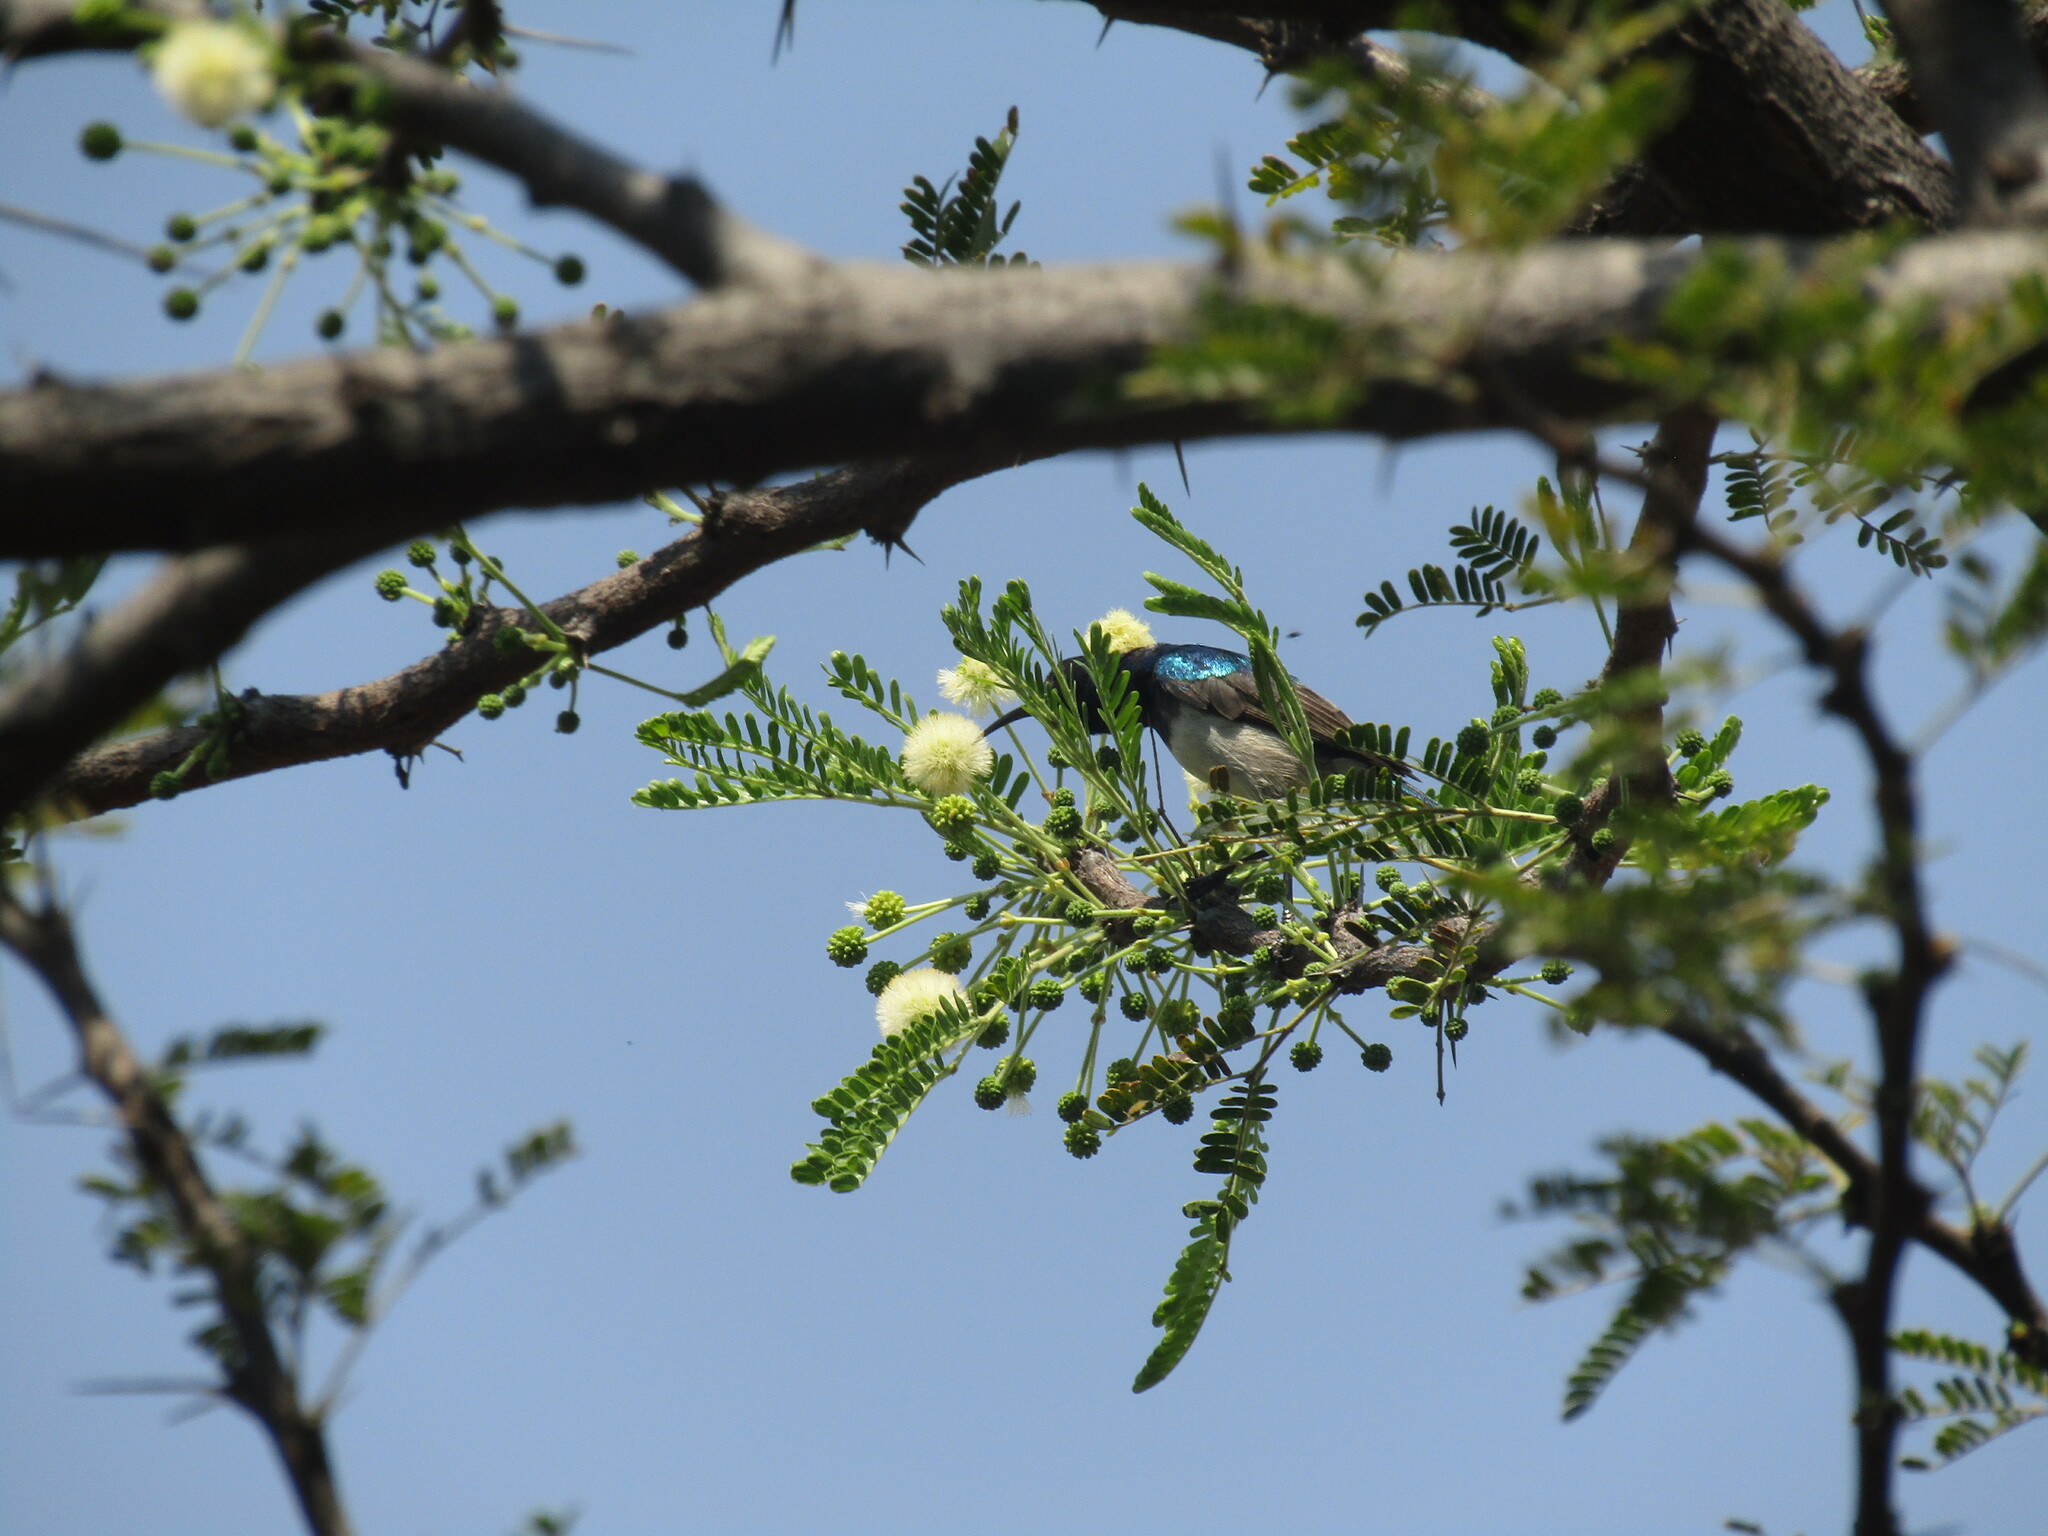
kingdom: Animalia
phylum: Chordata
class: Aves
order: Passeriformes
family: Nectariniidae
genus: Cinnyris
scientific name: Cinnyris talatala
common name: White-bellied sunbird
